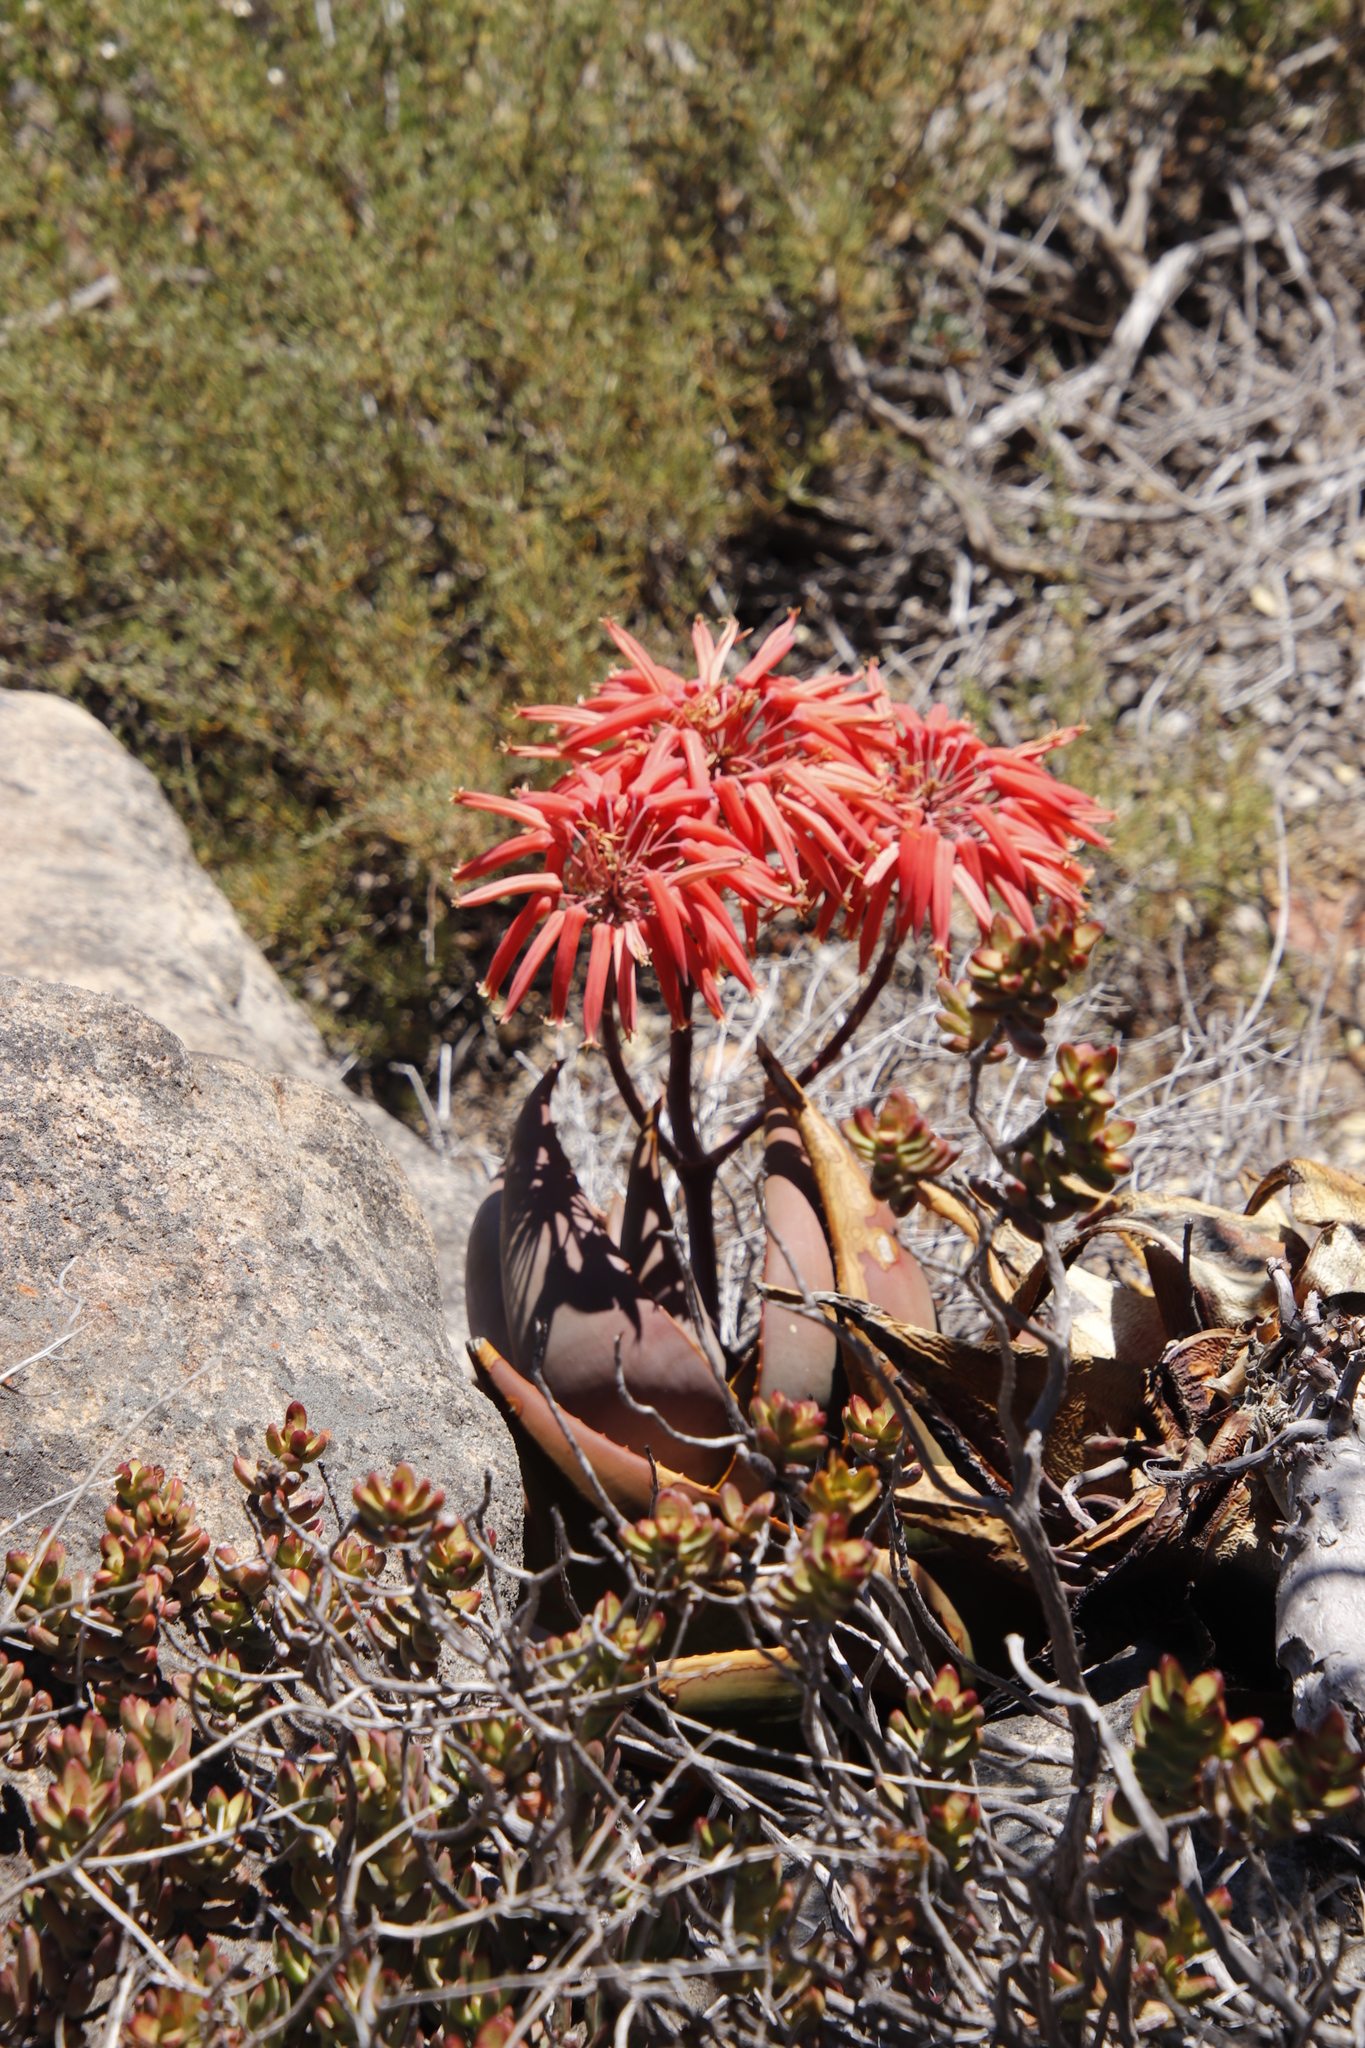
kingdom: Plantae
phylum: Tracheophyta
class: Liliopsida
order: Asparagales
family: Asphodelaceae
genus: Aloe
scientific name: Aloe perfoliata
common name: Mitra aloe
